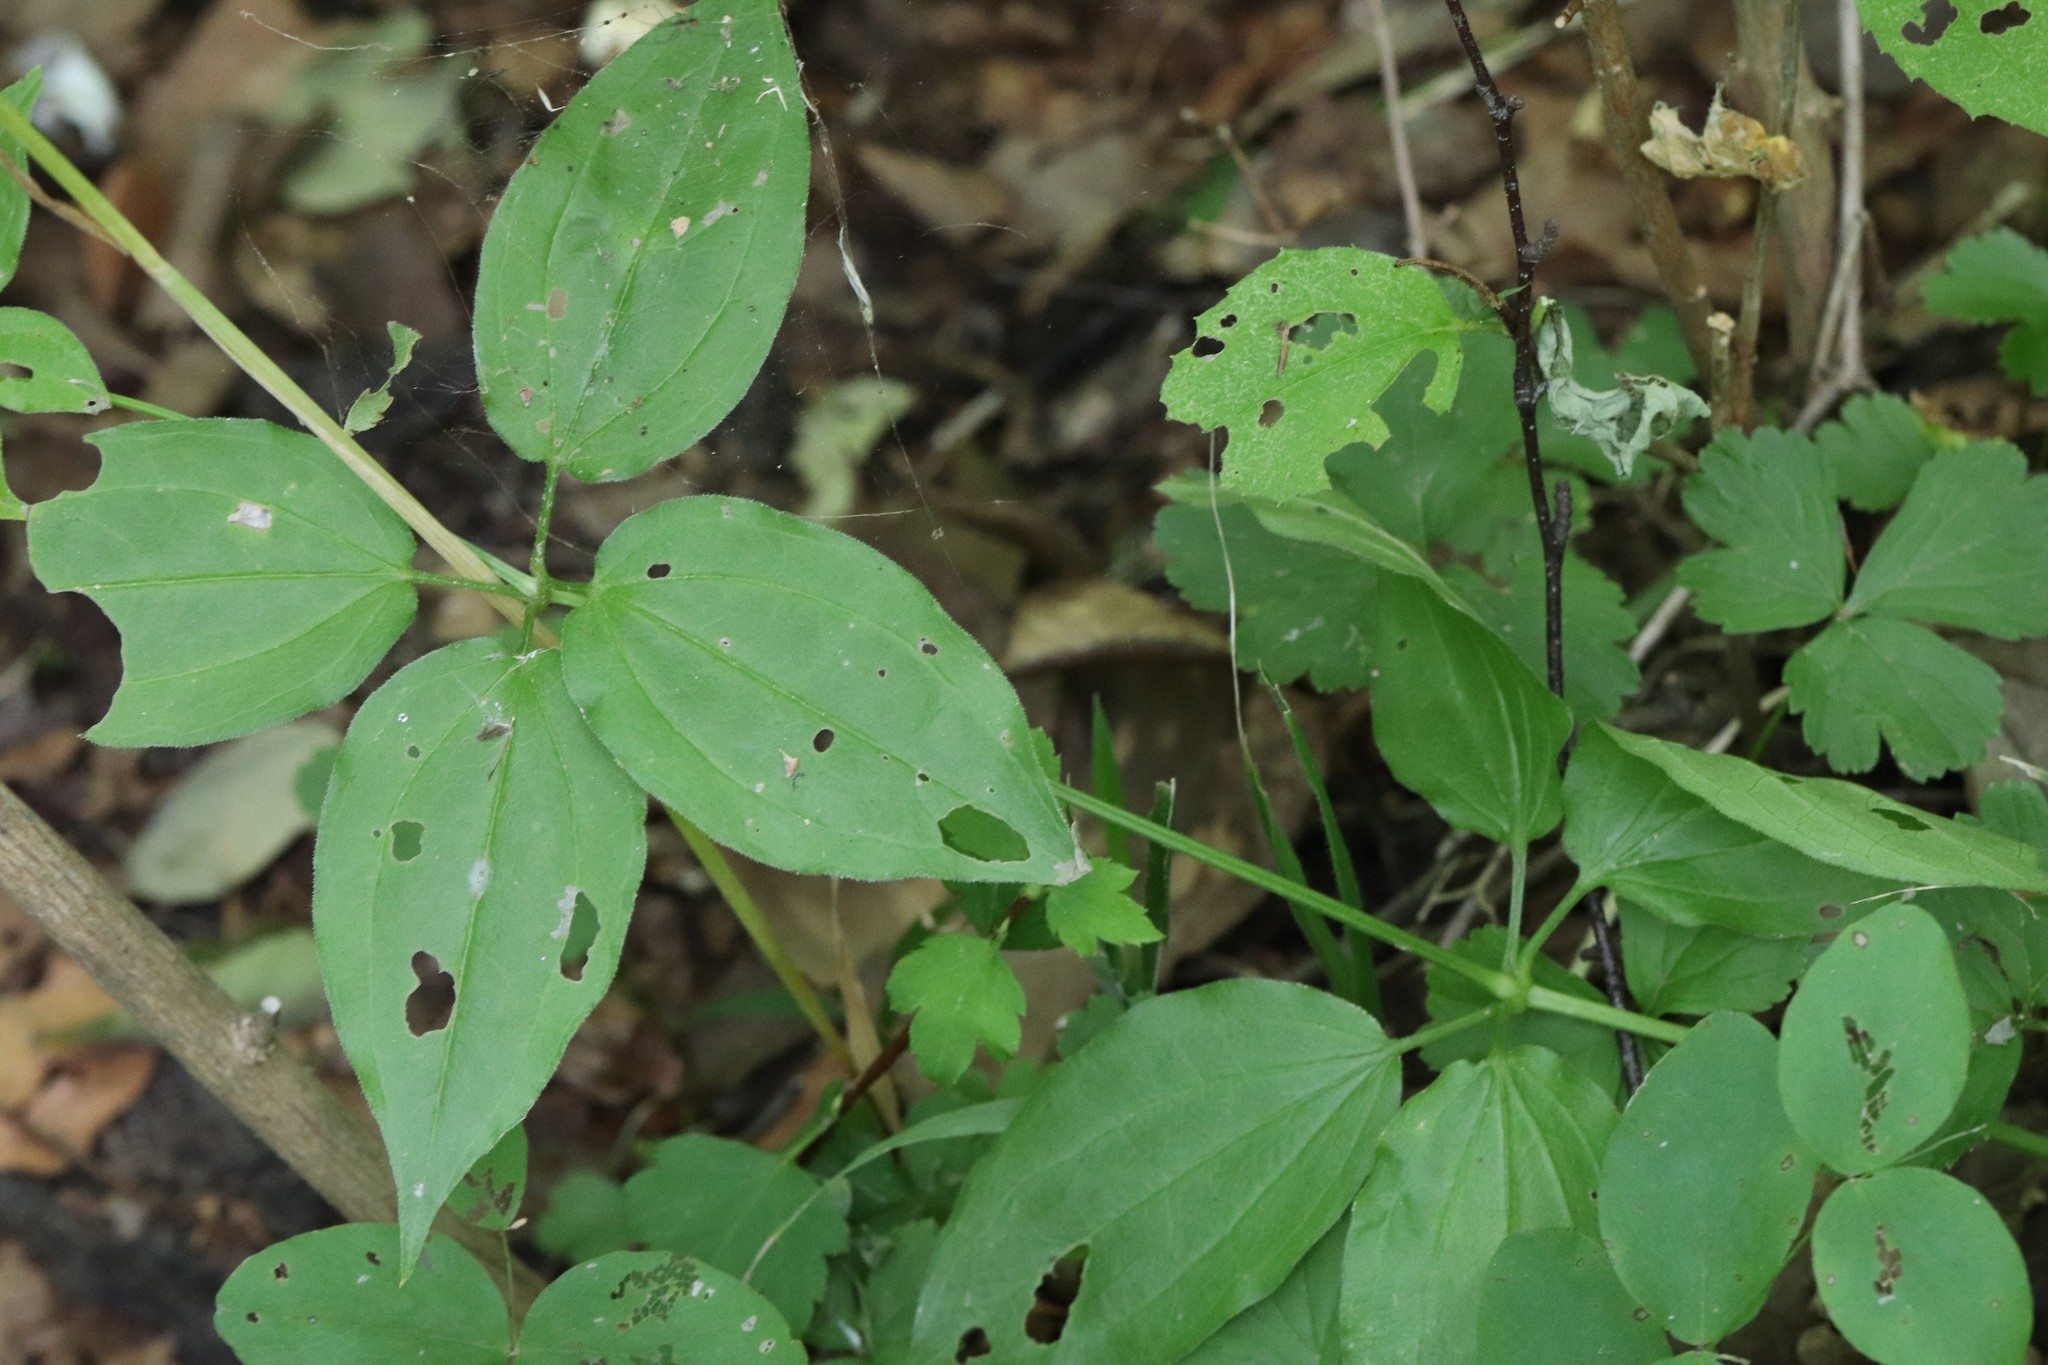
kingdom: Plantae
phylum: Tracheophyta
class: Magnoliopsida
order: Gentianales
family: Rubiaceae
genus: Rubia
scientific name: Rubia cordifolia
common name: Indian madder
